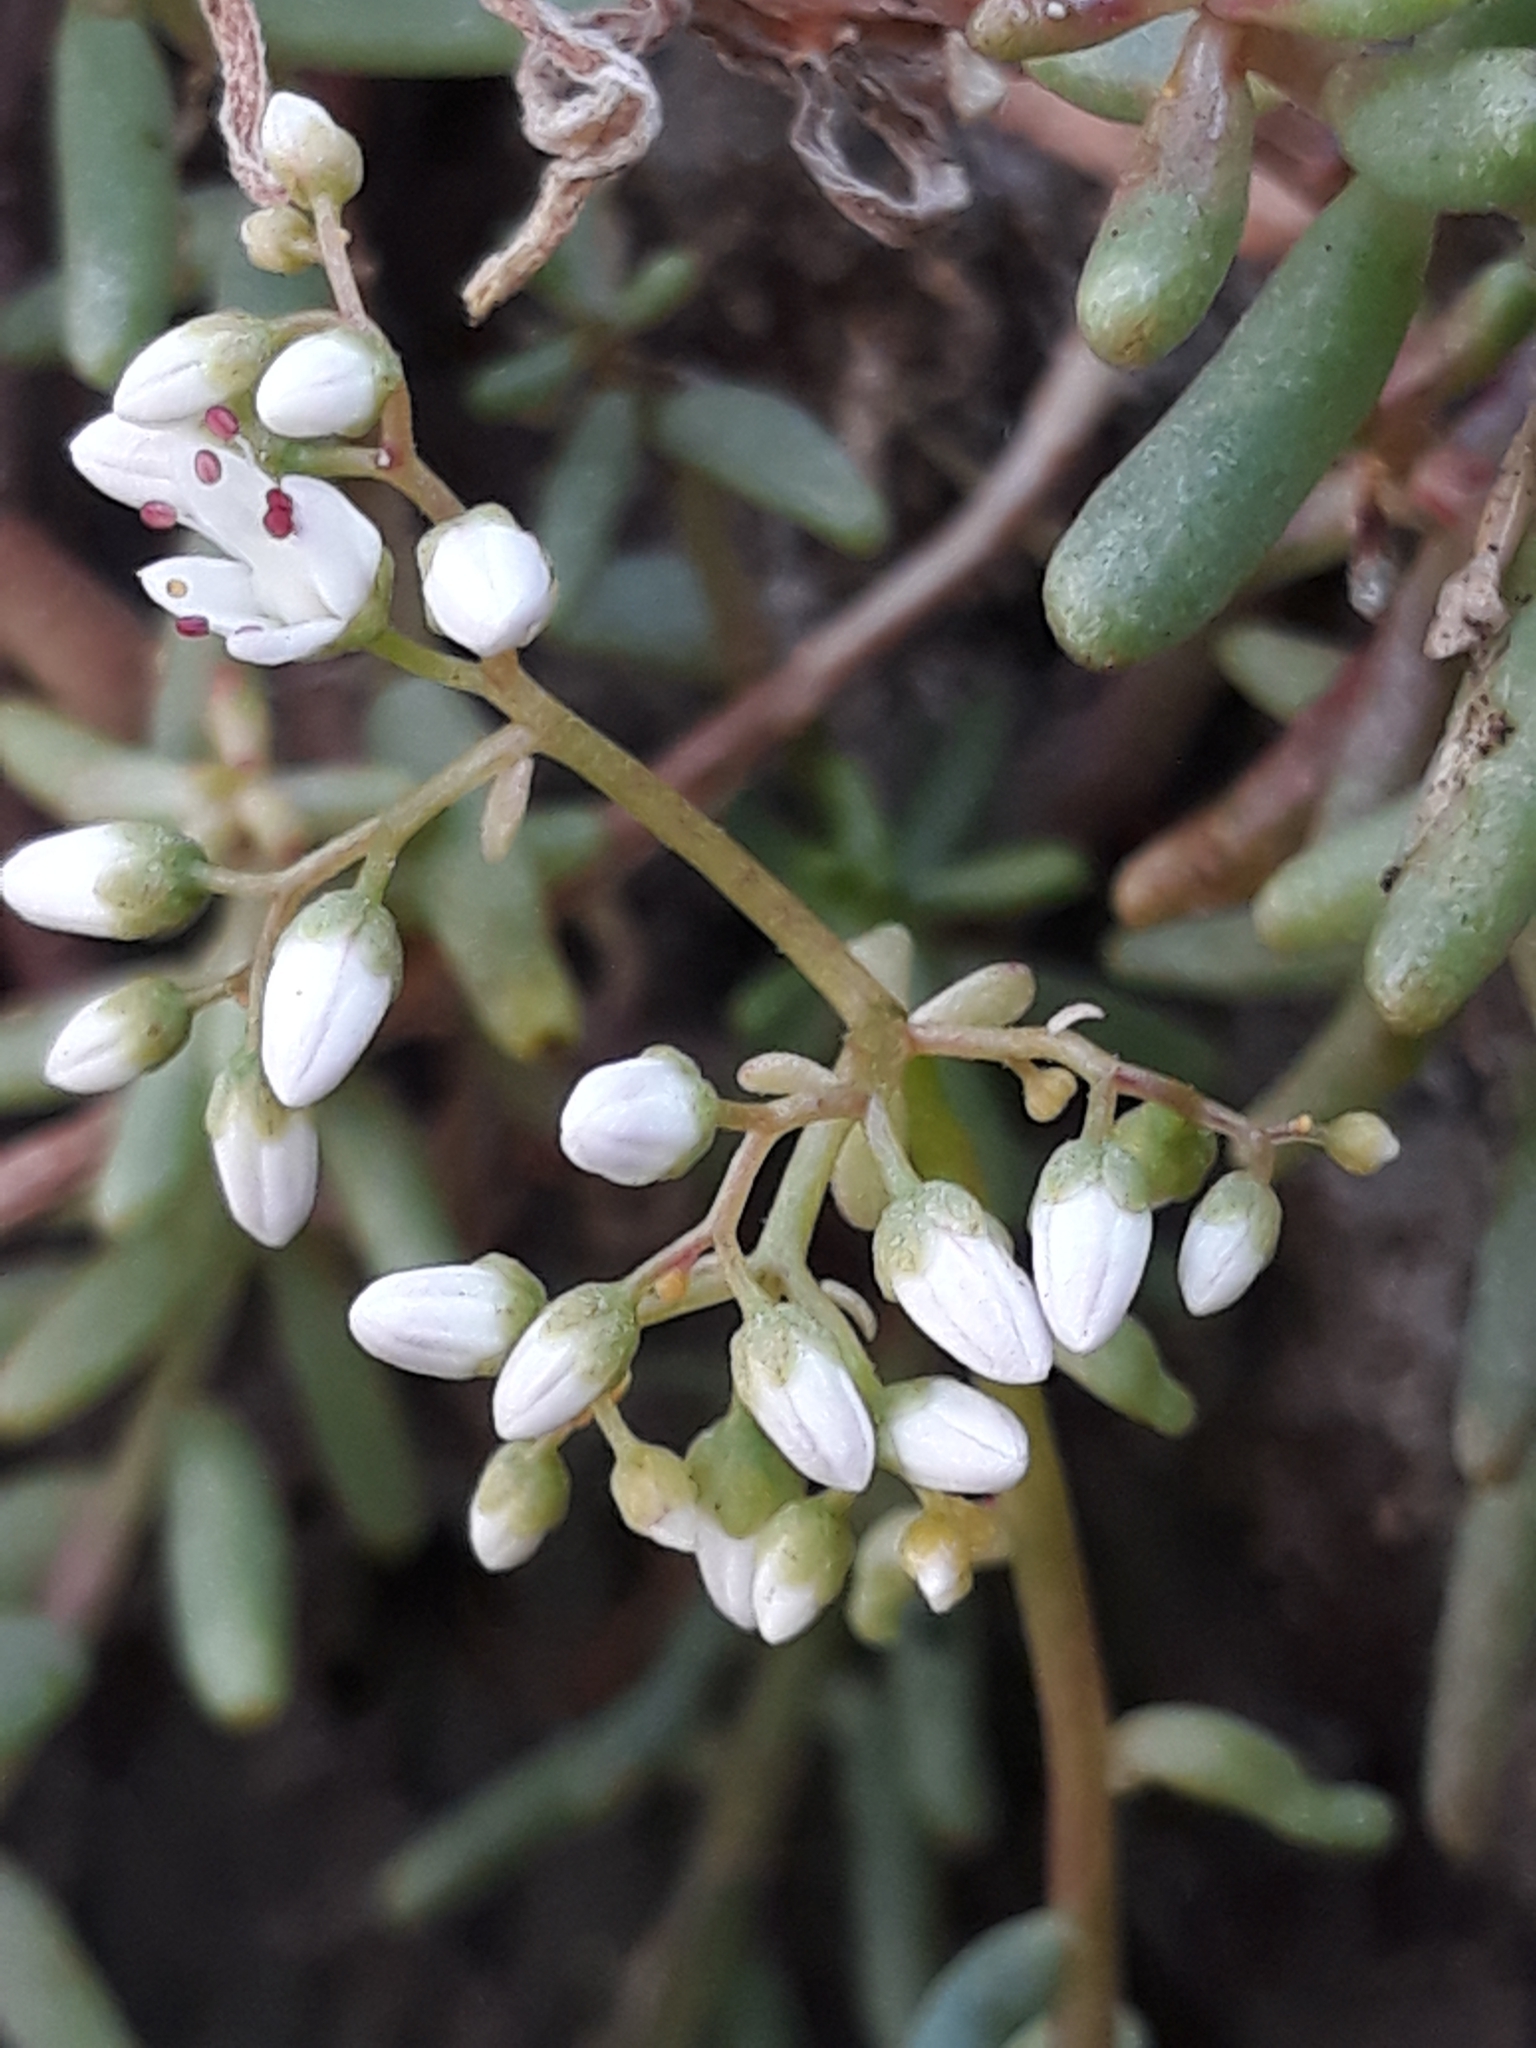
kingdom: Plantae
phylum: Tracheophyta
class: Magnoliopsida
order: Saxifragales
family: Crassulaceae
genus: Sedum
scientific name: Sedum album
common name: White stonecrop
